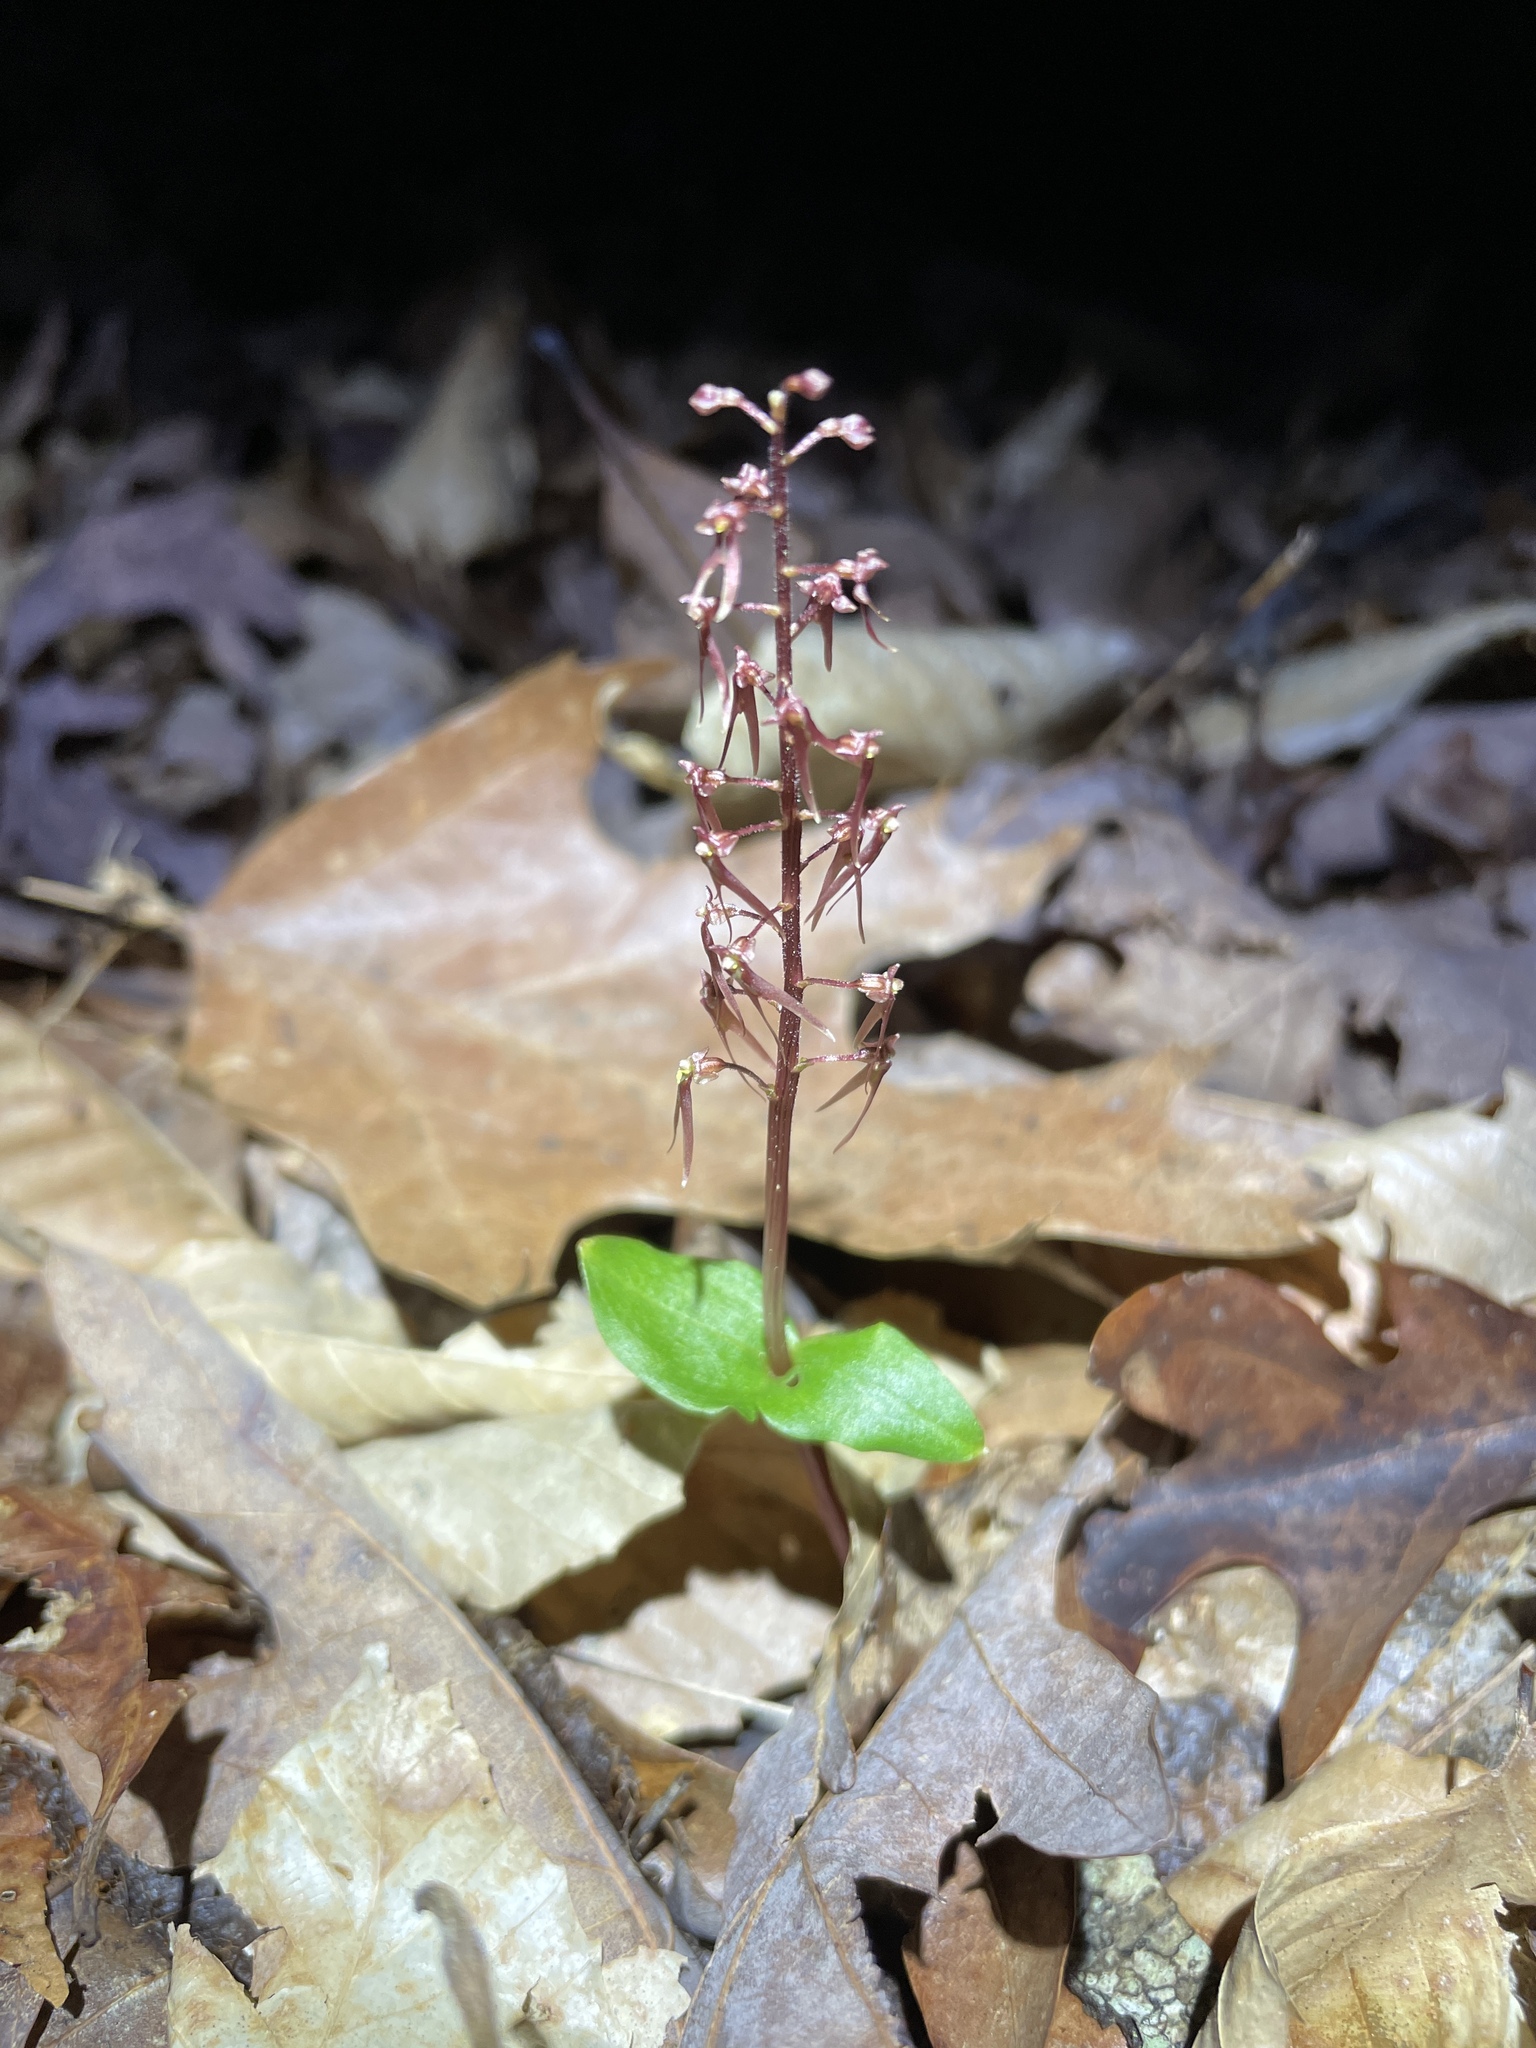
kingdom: Plantae
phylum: Tracheophyta
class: Liliopsida
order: Asparagales
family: Orchidaceae
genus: Neottia
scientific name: Neottia bifolia
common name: Southern twayblade
